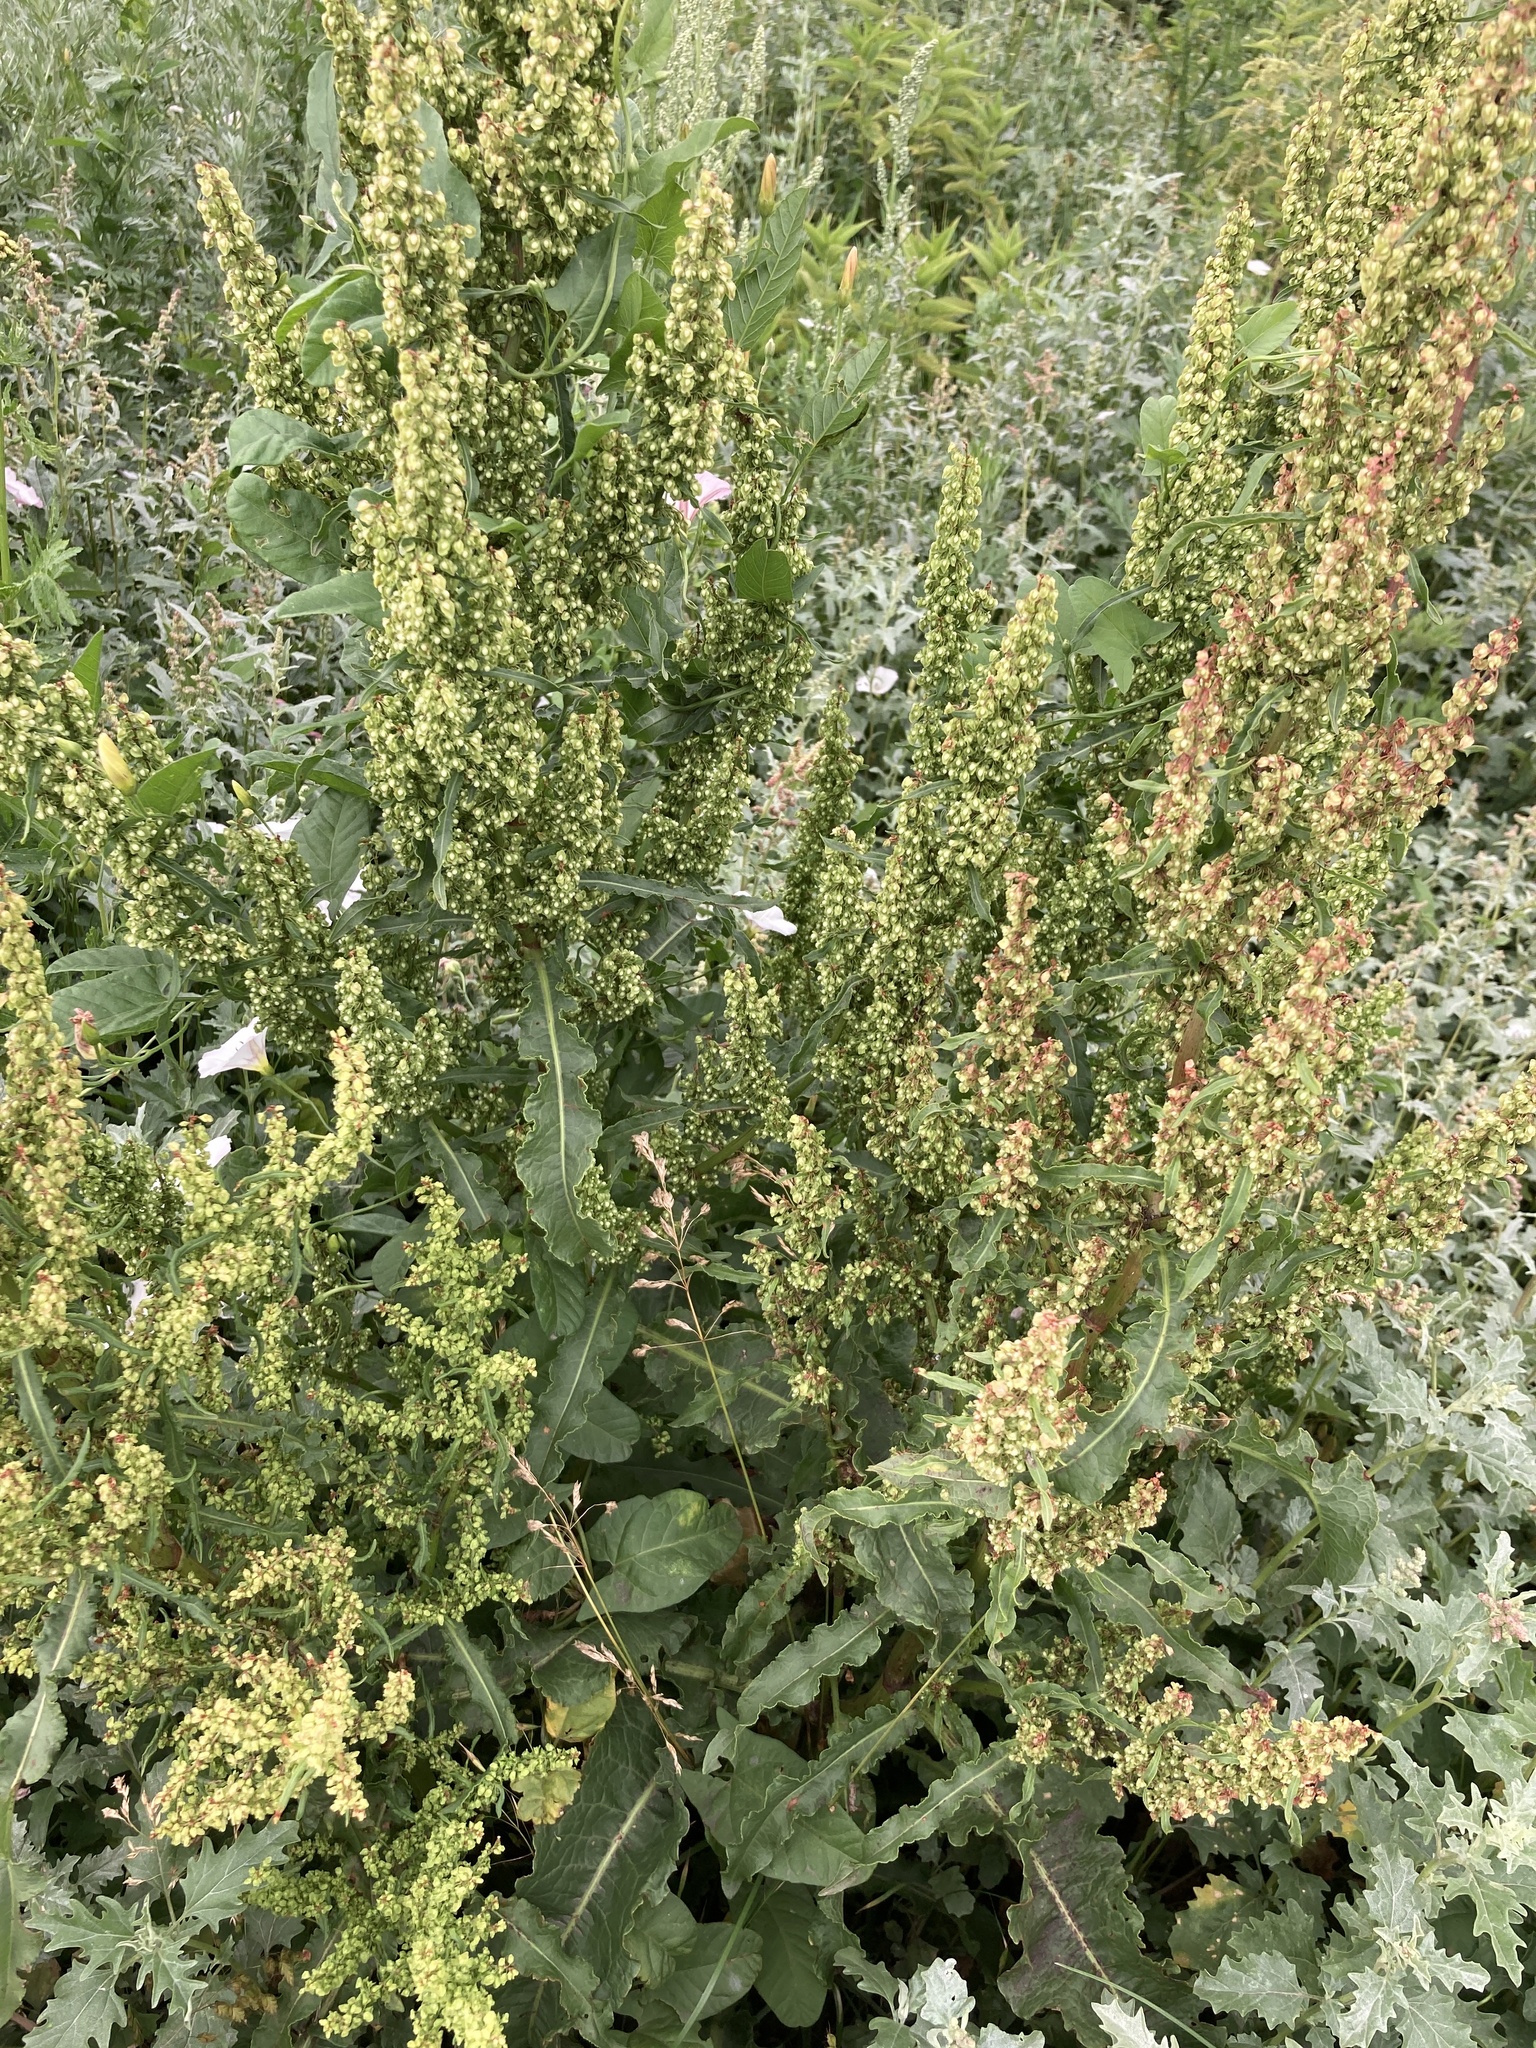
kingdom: Plantae
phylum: Tracheophyta
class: Magnoliopsida
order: Caryophyllales
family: Polygonaceae
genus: Rumex
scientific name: Rumex crispus
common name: Curled dock
